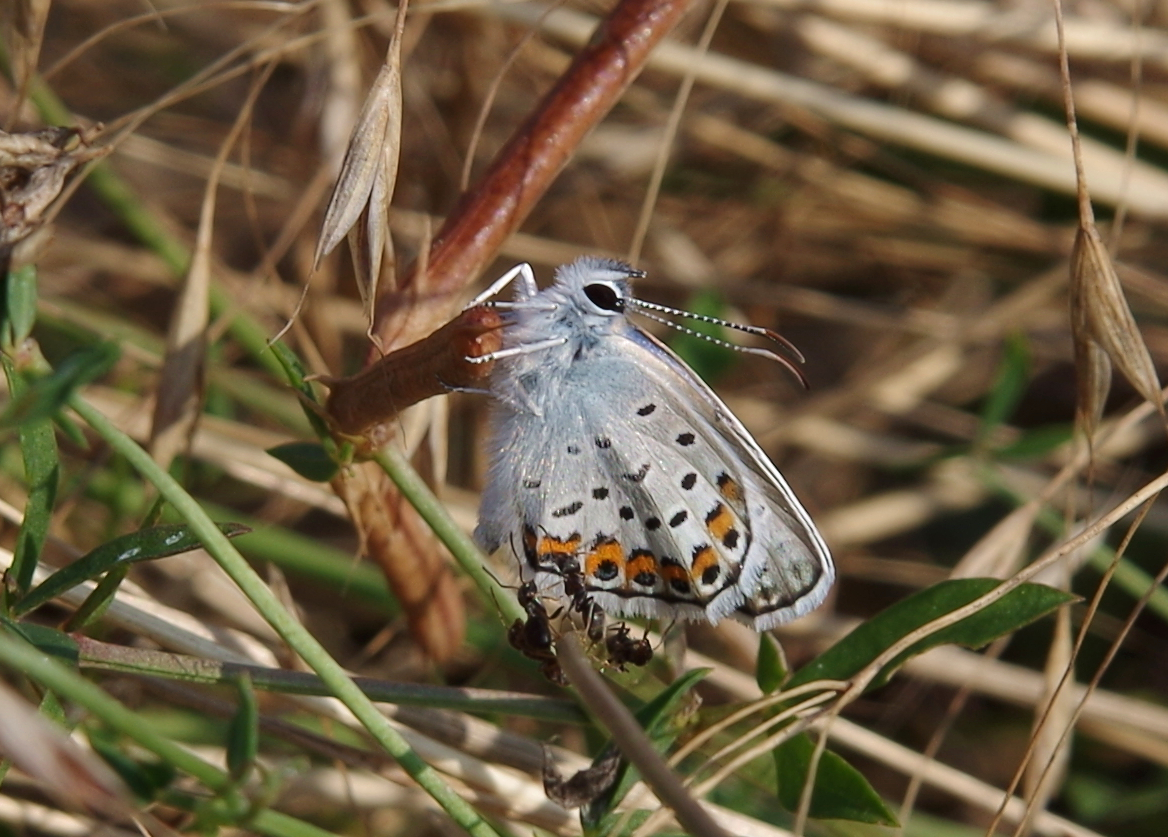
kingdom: Animalia
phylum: Arthropoda
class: Insecta
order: Lepidoptera
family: Lycaenidae
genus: Plebejus
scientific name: Plebejus argus
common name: Silver-studded blue
